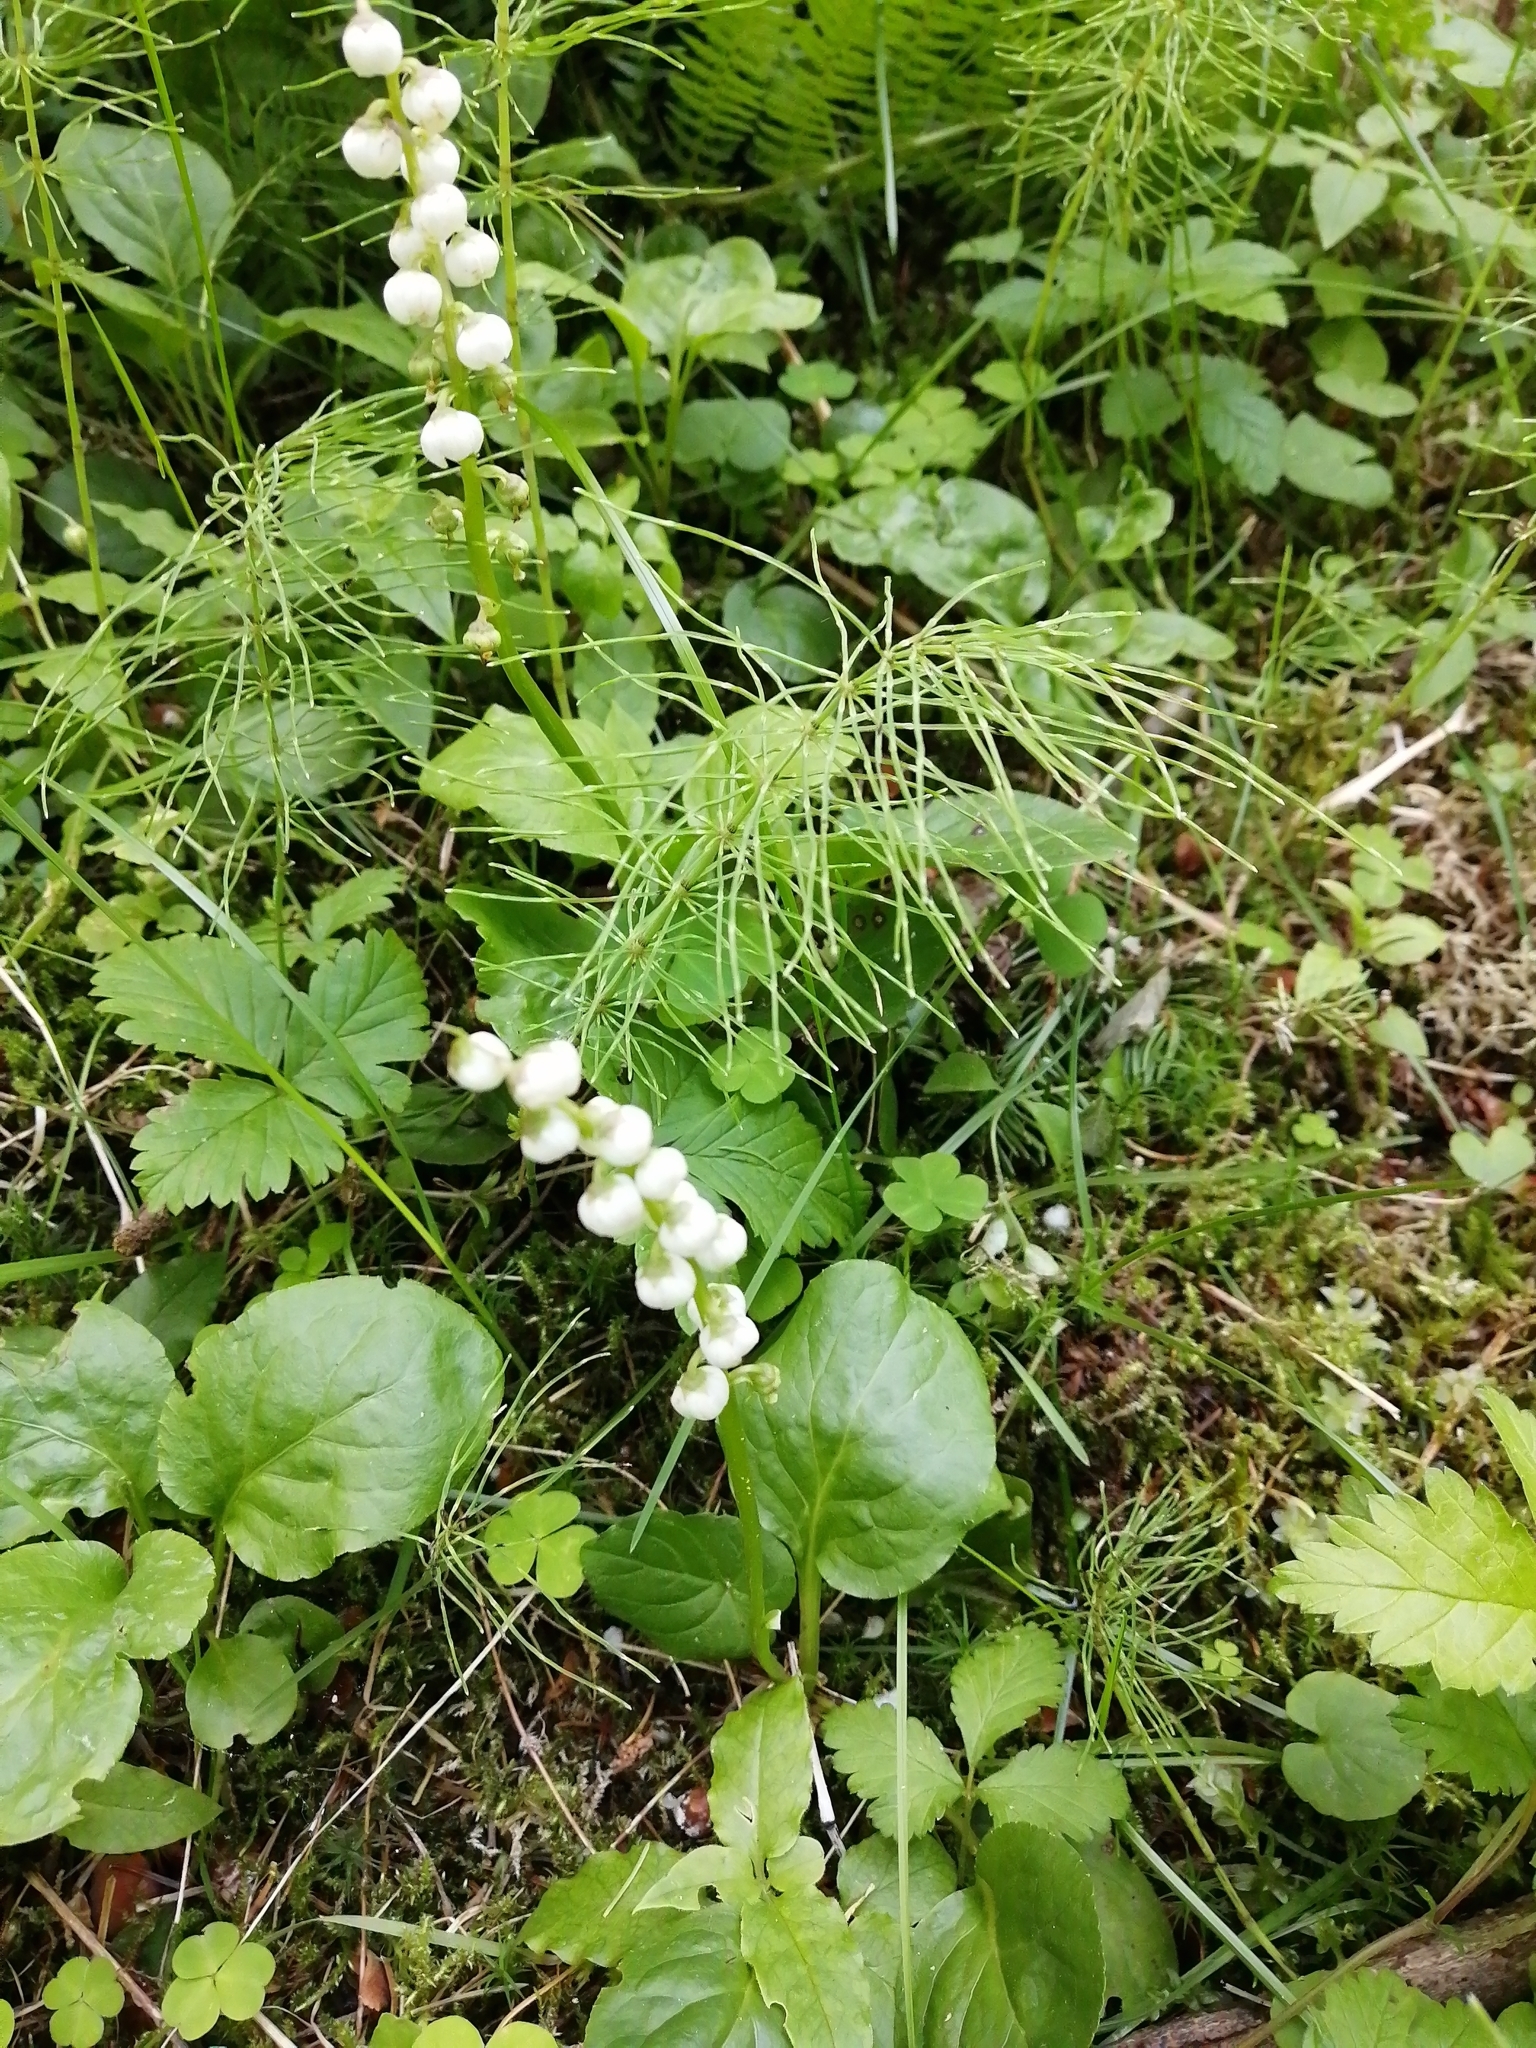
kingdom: Plantae
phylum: Tracheophyta
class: Magnoliopsida
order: Ericales
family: Ericaceae
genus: Pyrola
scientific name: Pyrola minor
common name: Common wintergreen
